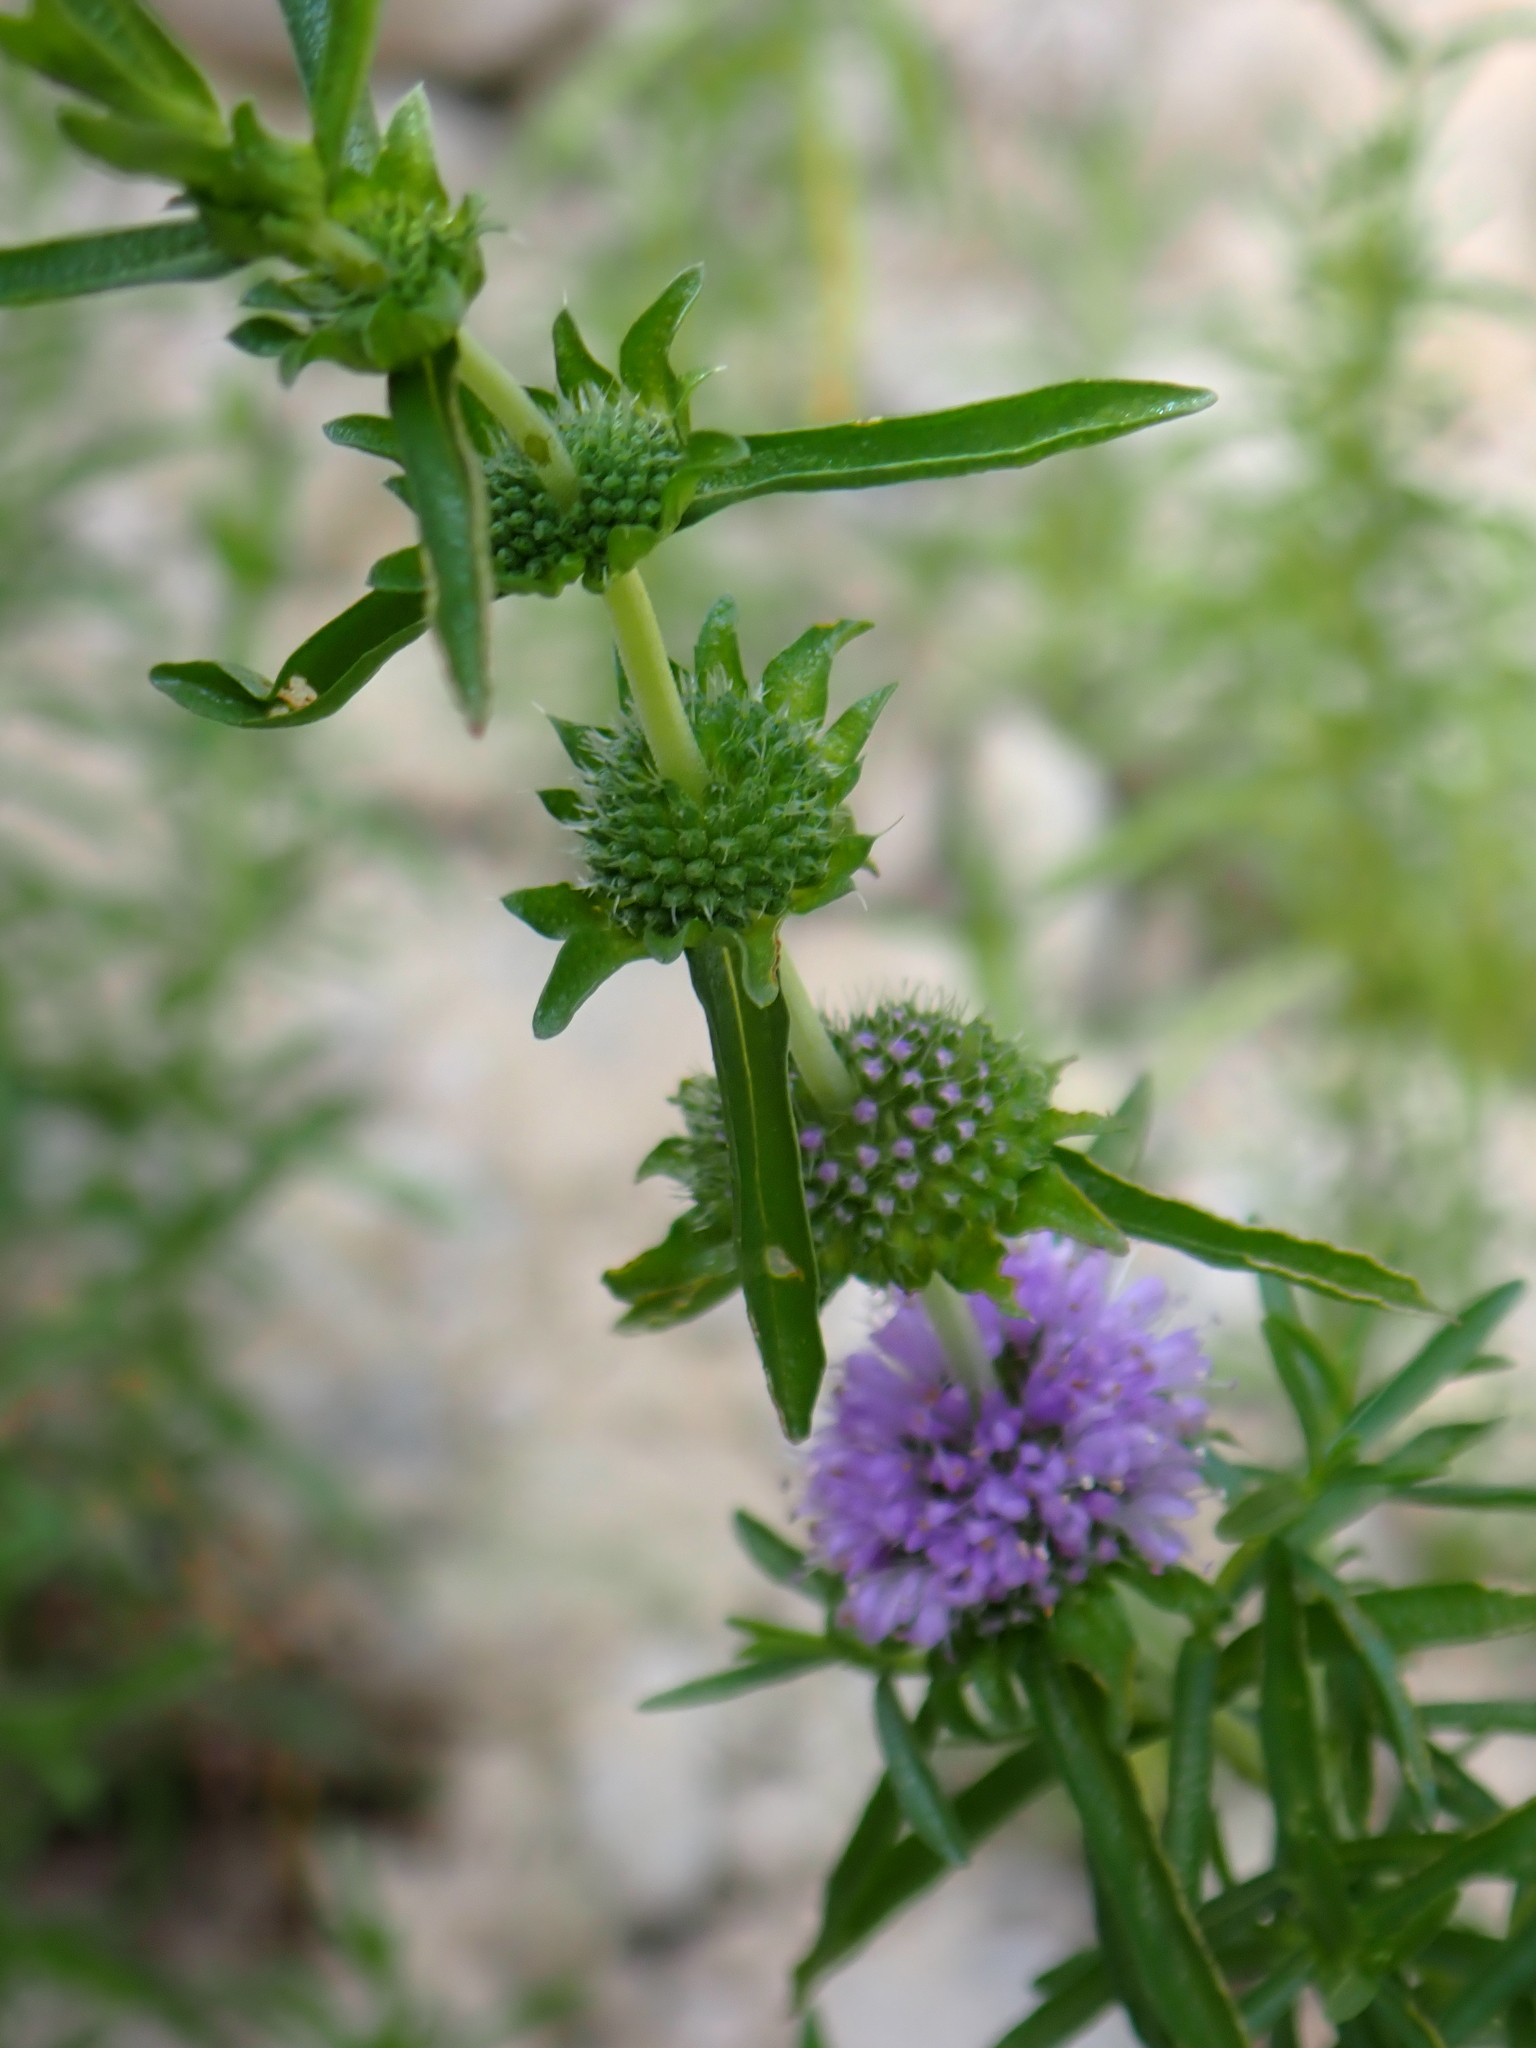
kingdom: Plantae
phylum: Tracheophyta
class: Magnoliopsida
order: Lamiales
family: Lamiaceae
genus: Mentha
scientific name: Mentha cervina
